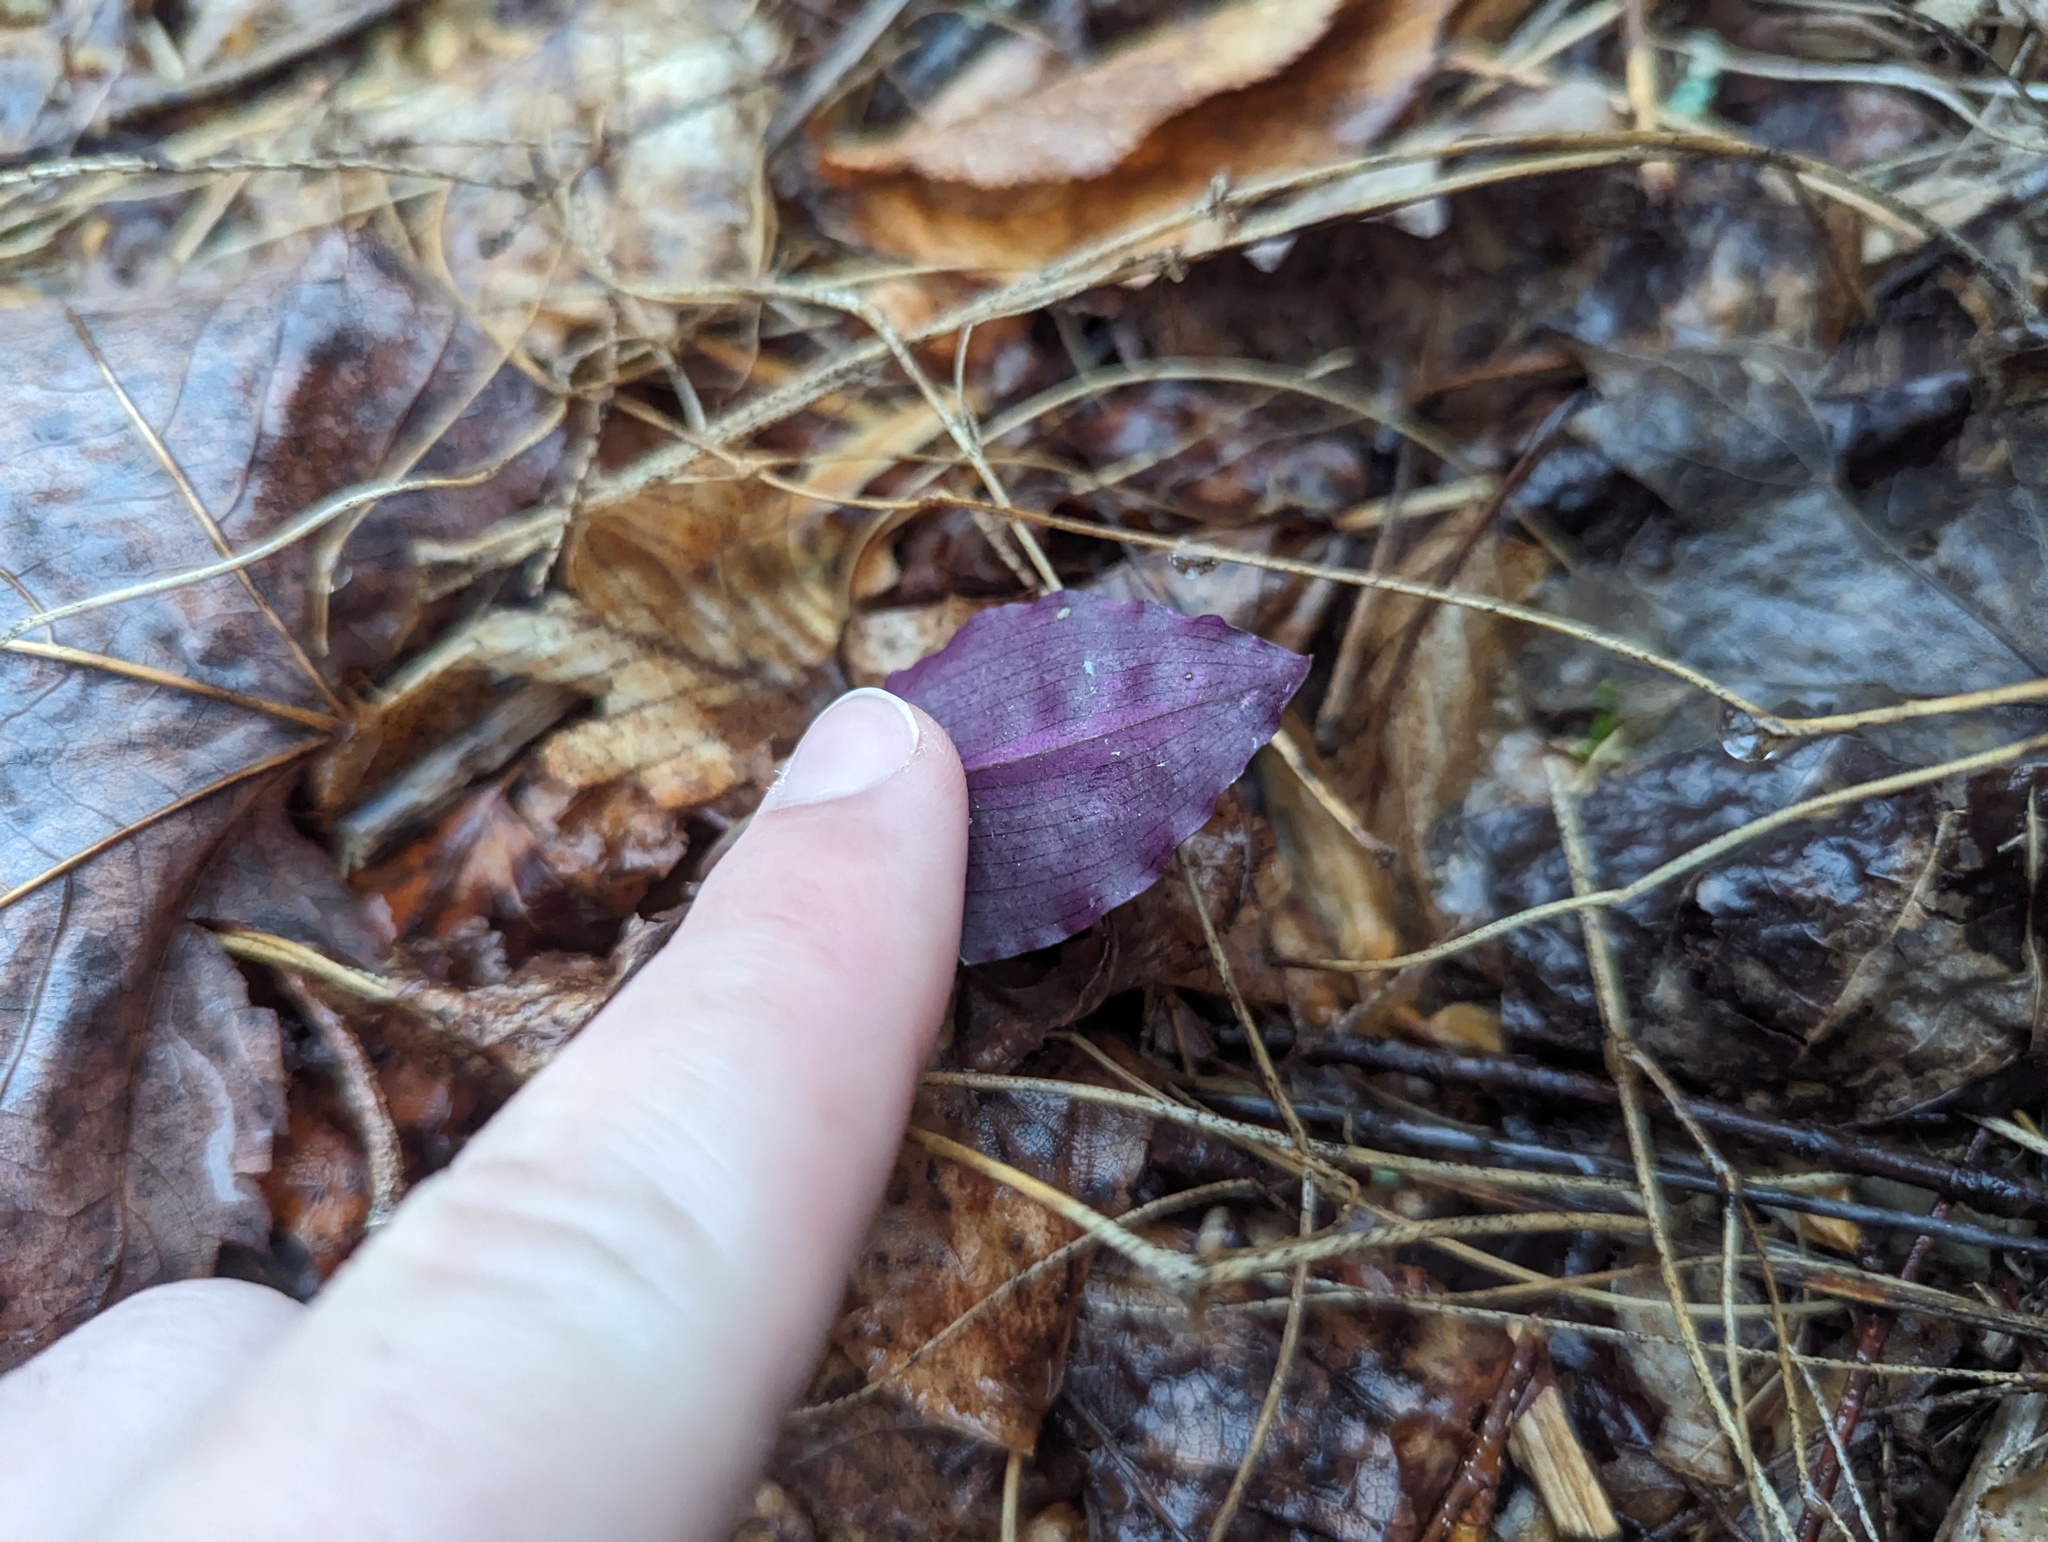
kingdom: Plantae
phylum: Tracheophyta
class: Liliopsida
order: Asparagales
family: Orchidaceae
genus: Tipularia
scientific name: Tipularia discolor
